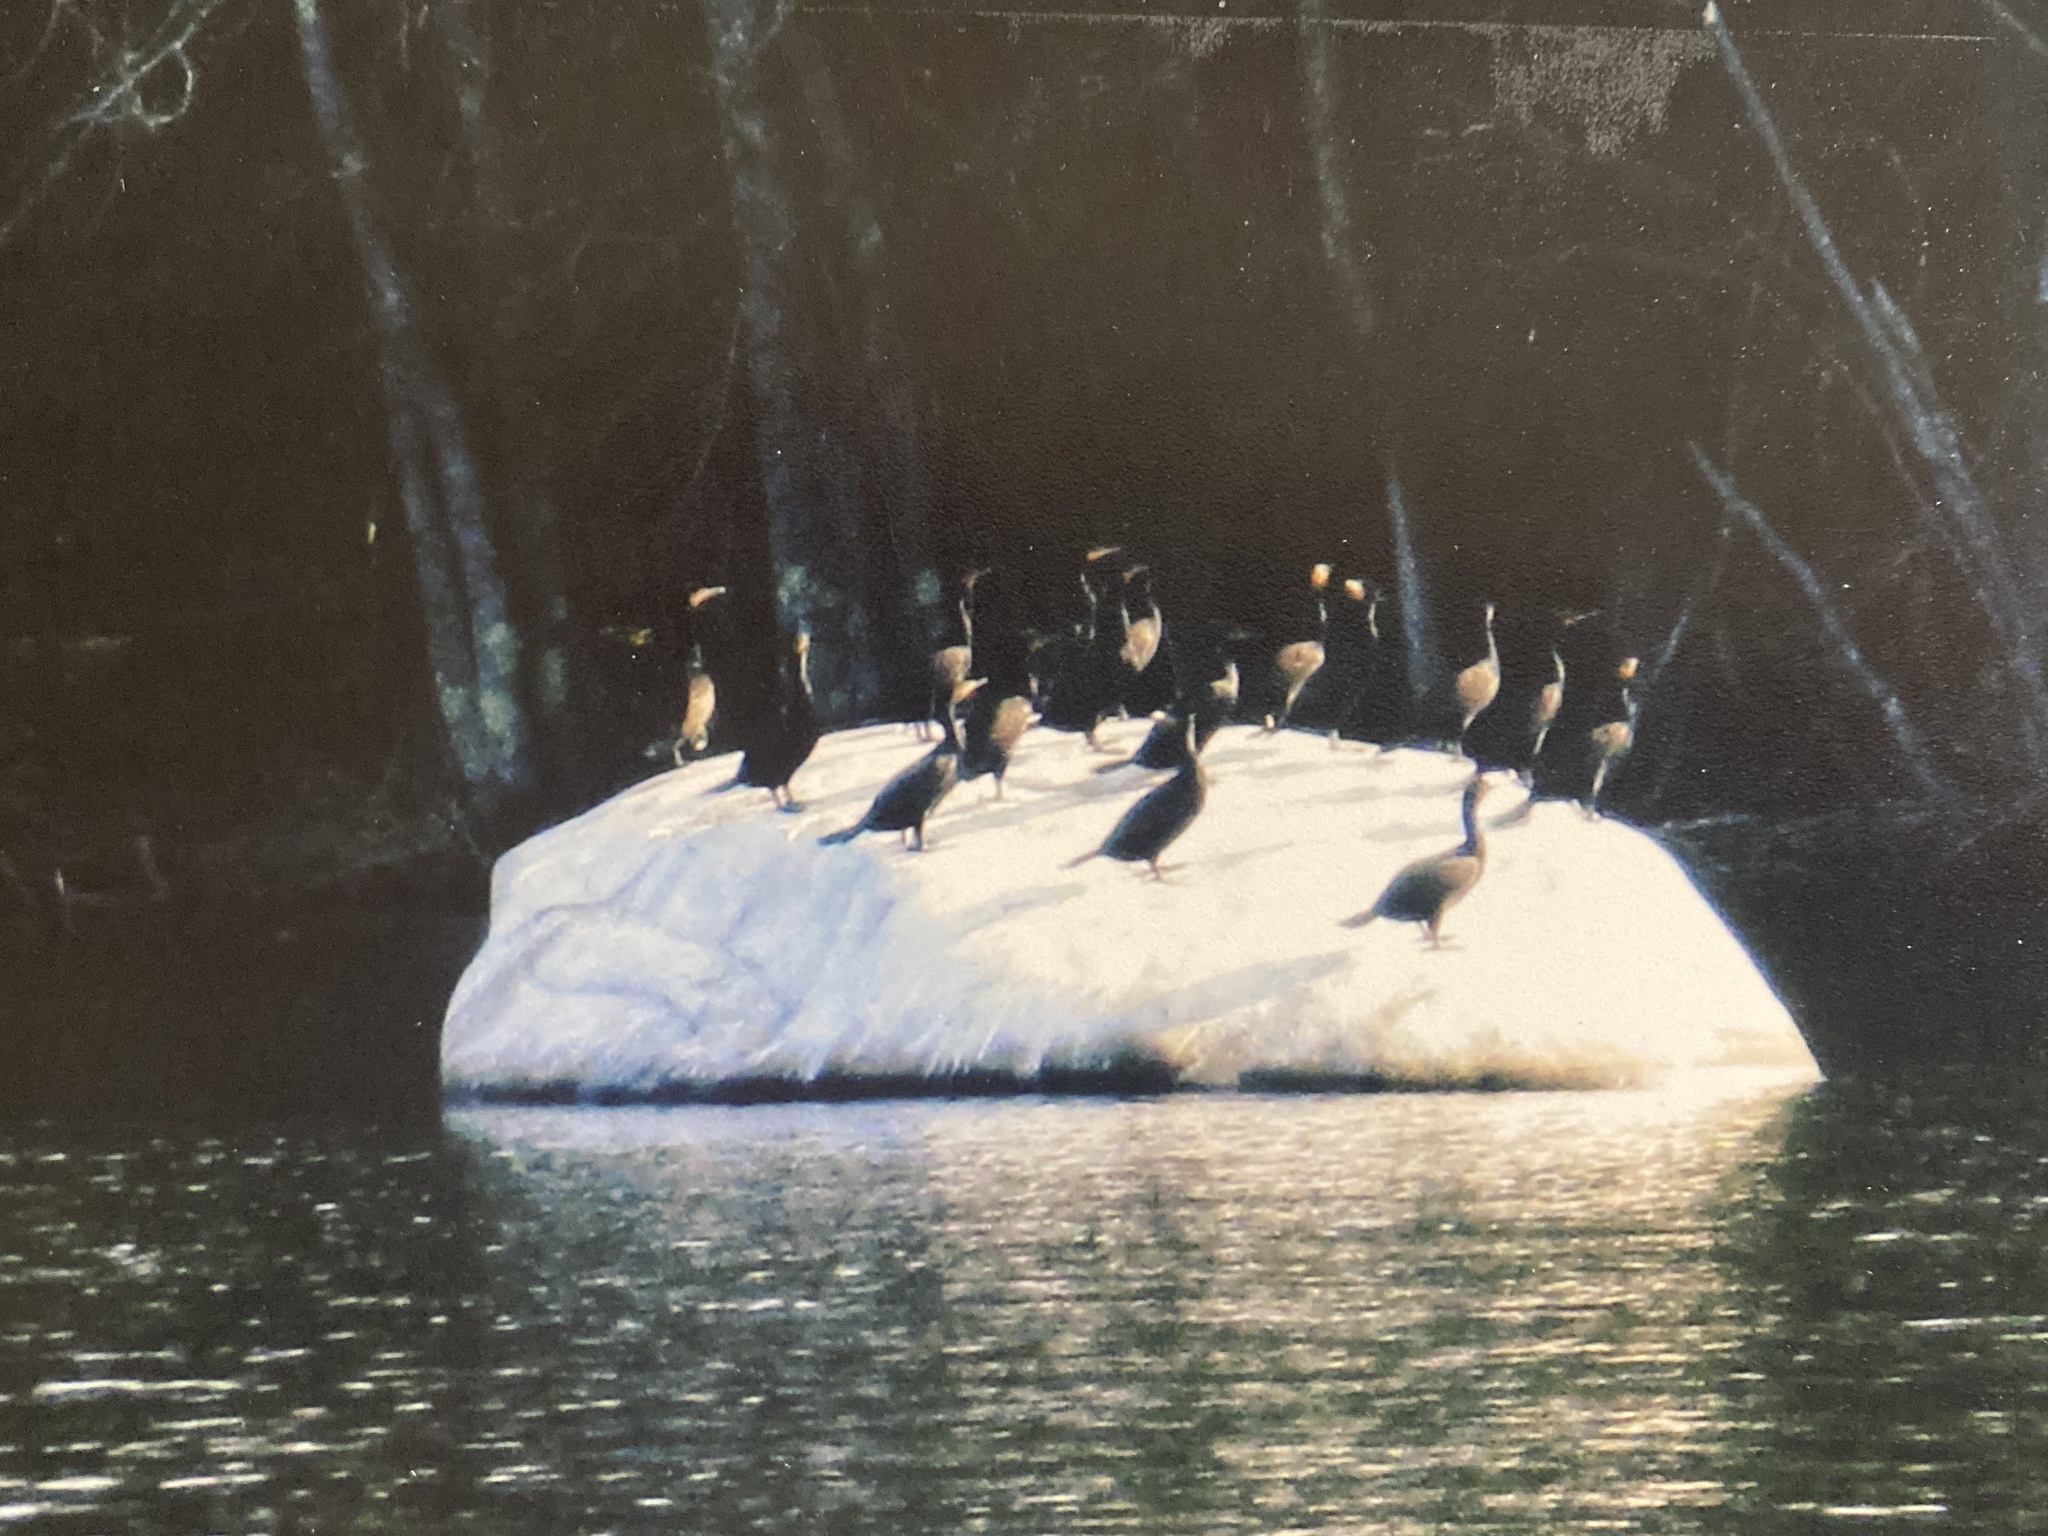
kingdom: Animalia
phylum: Chordata
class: Aves
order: Suliformes
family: Phalacrocoracidae
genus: Phalacrocorax
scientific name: Phalacrocorax auritus
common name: Double-crested cormorant
